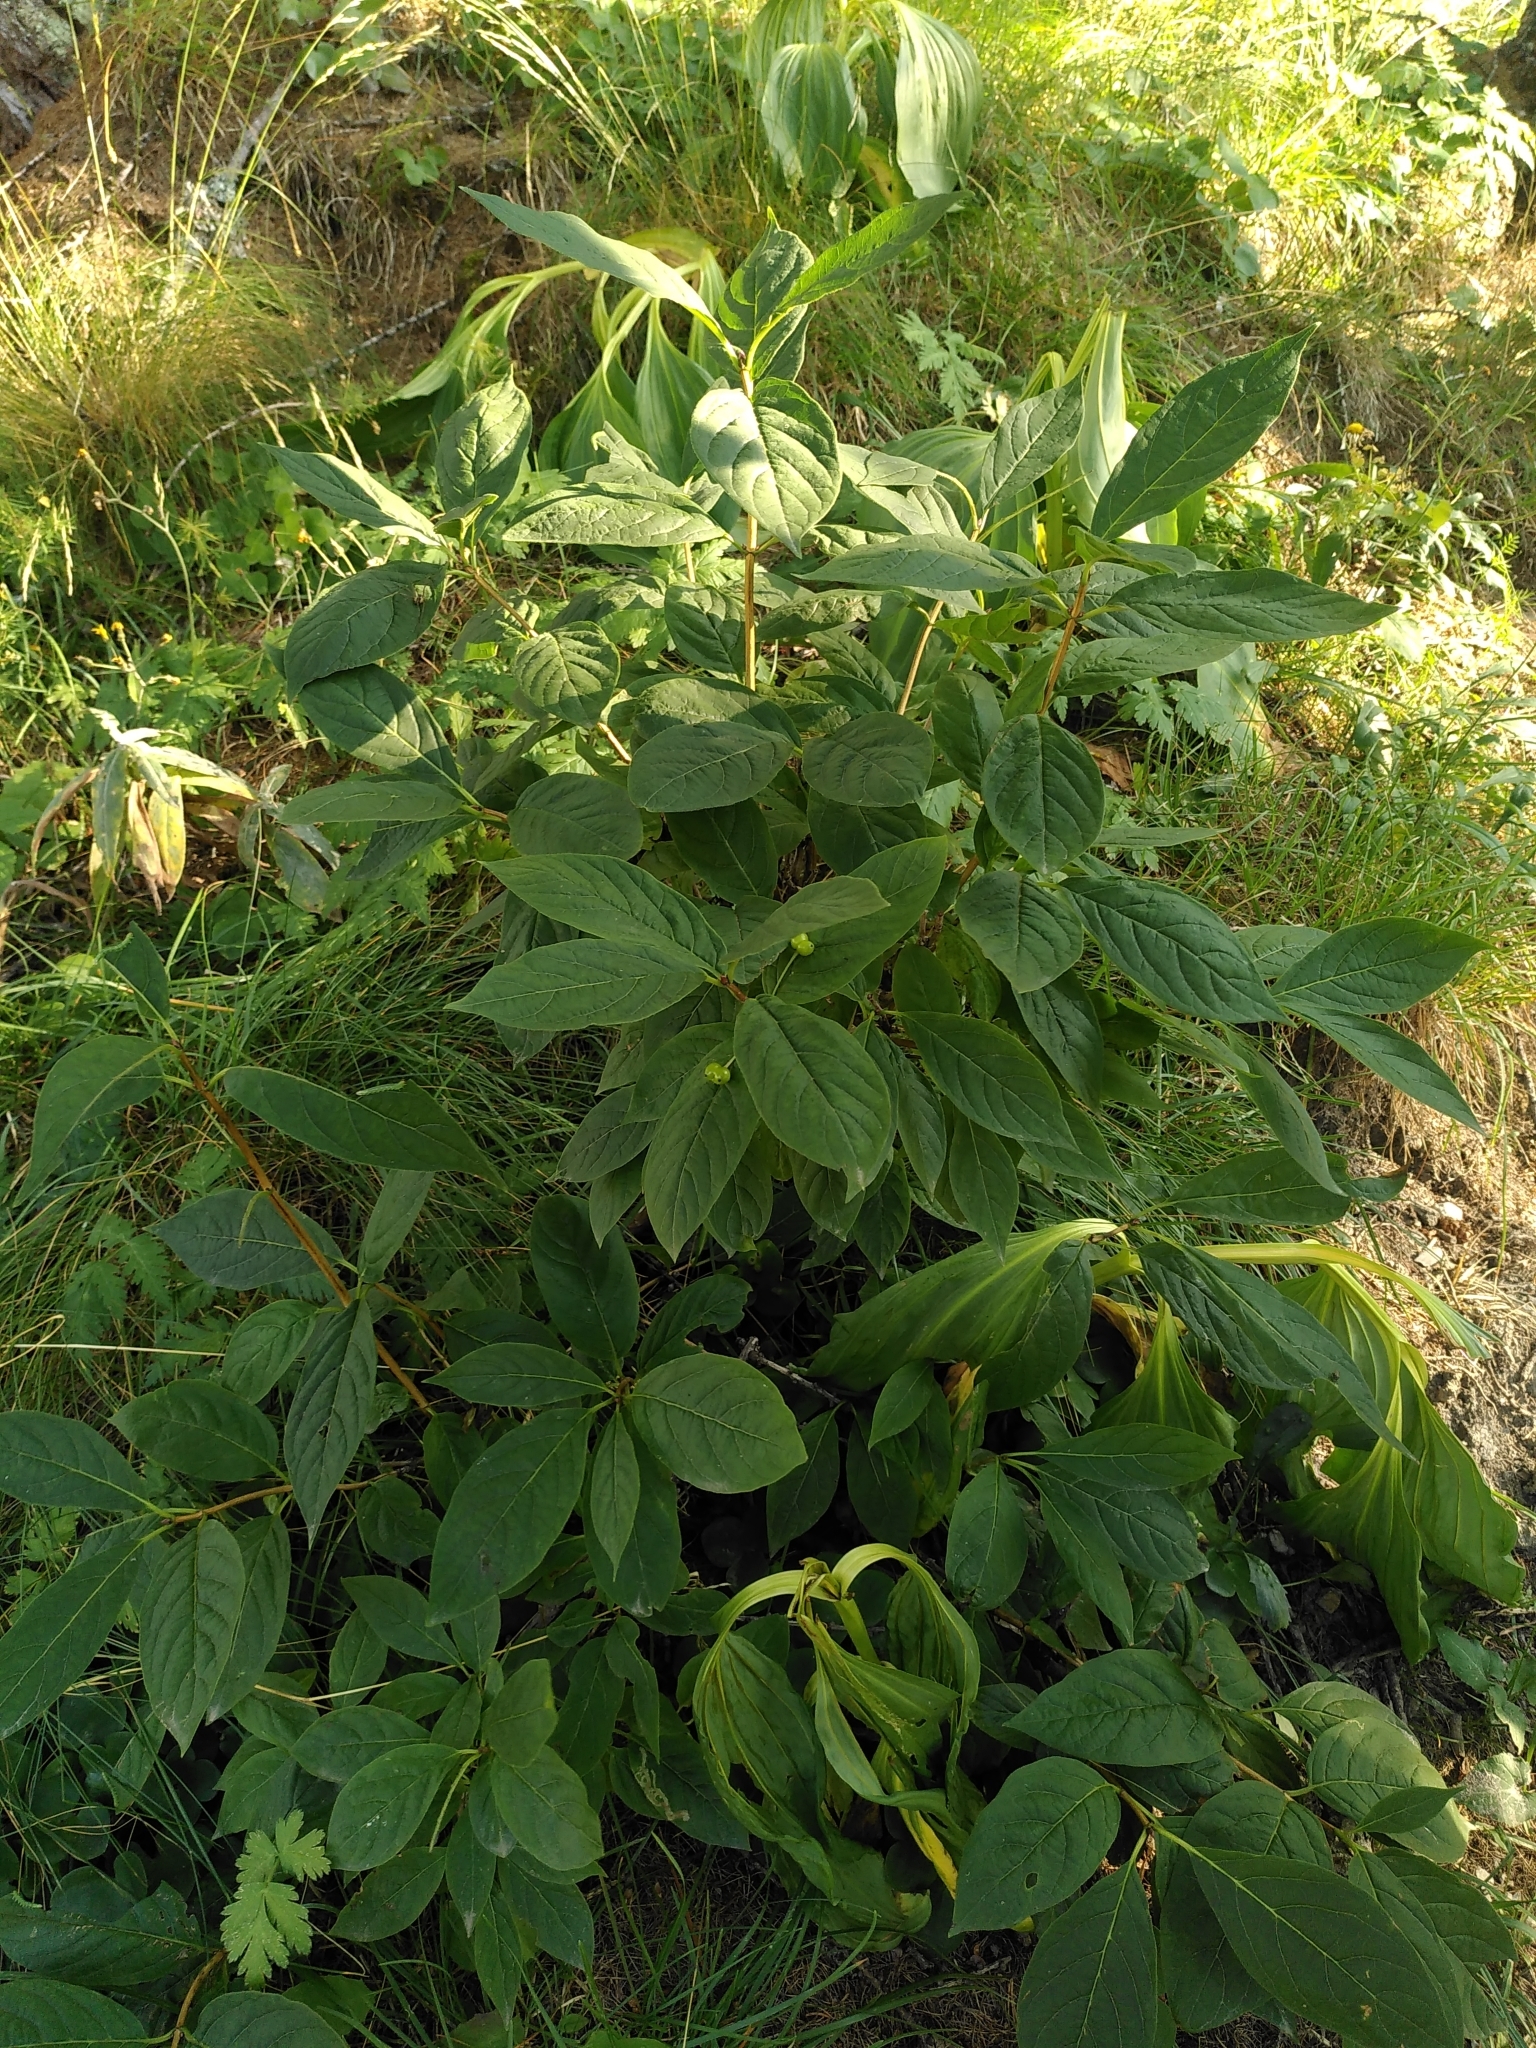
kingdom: Plantae
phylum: Tracheophyta
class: Magnoliopsida
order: Dipsacales
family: Caprifoliaceae
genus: Lonicera
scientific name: Lonicera alpigena
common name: Alpine honeysuckle
